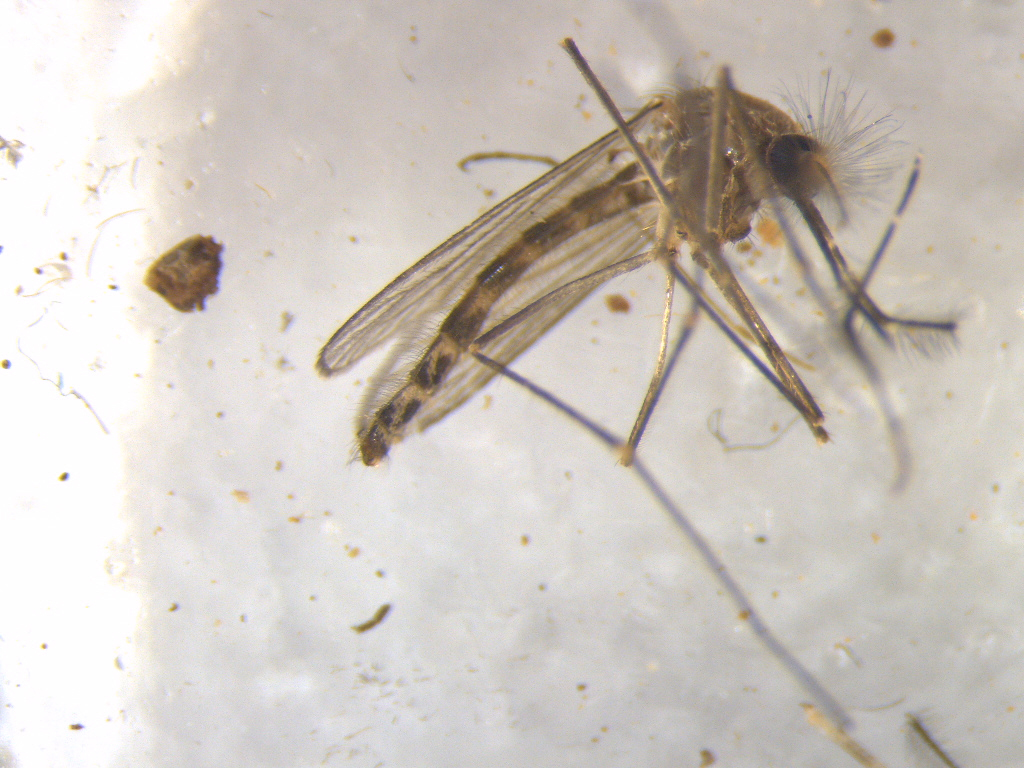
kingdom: Animalia
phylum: Arthropoda
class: Insecta
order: Diptera
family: Culicidae
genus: Culex
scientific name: Culex pervigilans
